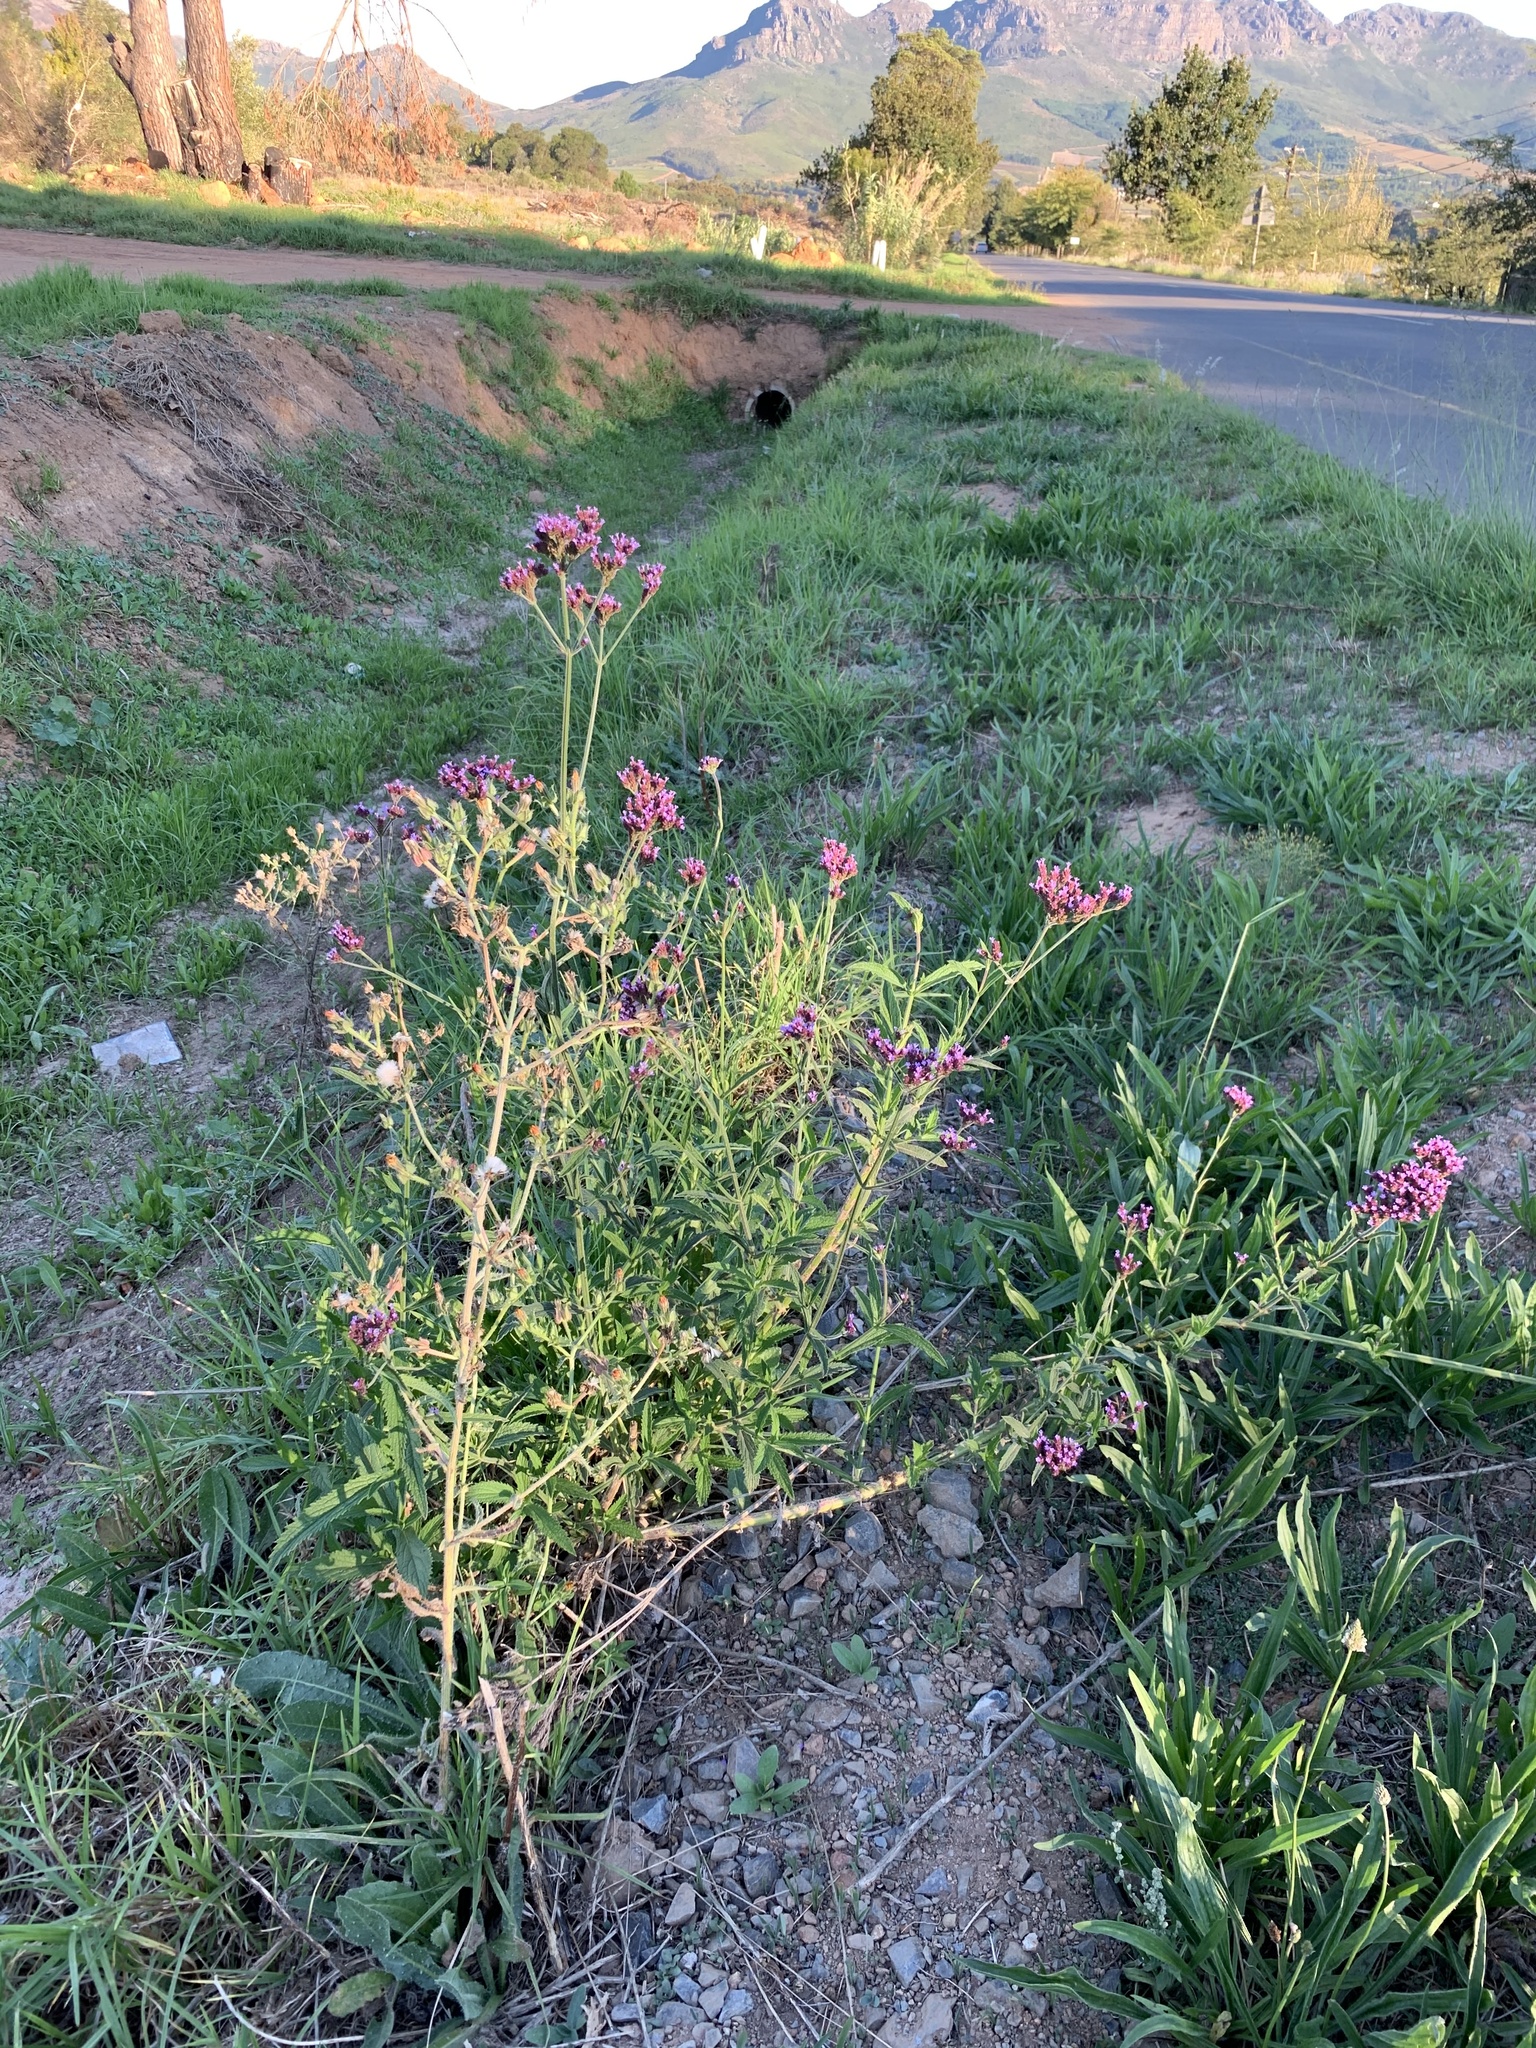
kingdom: Plantae
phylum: Tracheophyta
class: Magnoliopsida
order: Lamiales
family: Verbenaceae
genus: Verbena
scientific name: Verbena bonariensis
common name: Purpletop vervain
